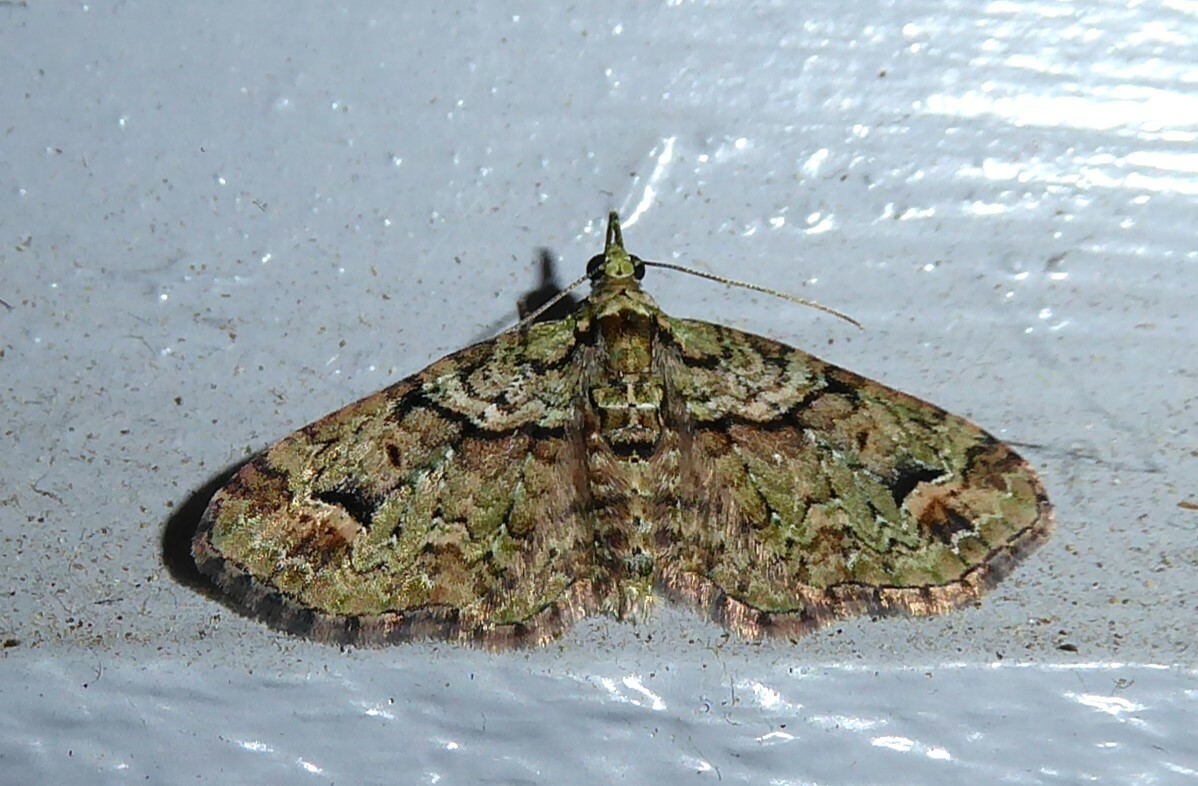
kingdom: Animalia
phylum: Arthropoda
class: Insecta
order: Lepidoptera
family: Geometridae
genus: Idaea
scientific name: Idaea mutanda
